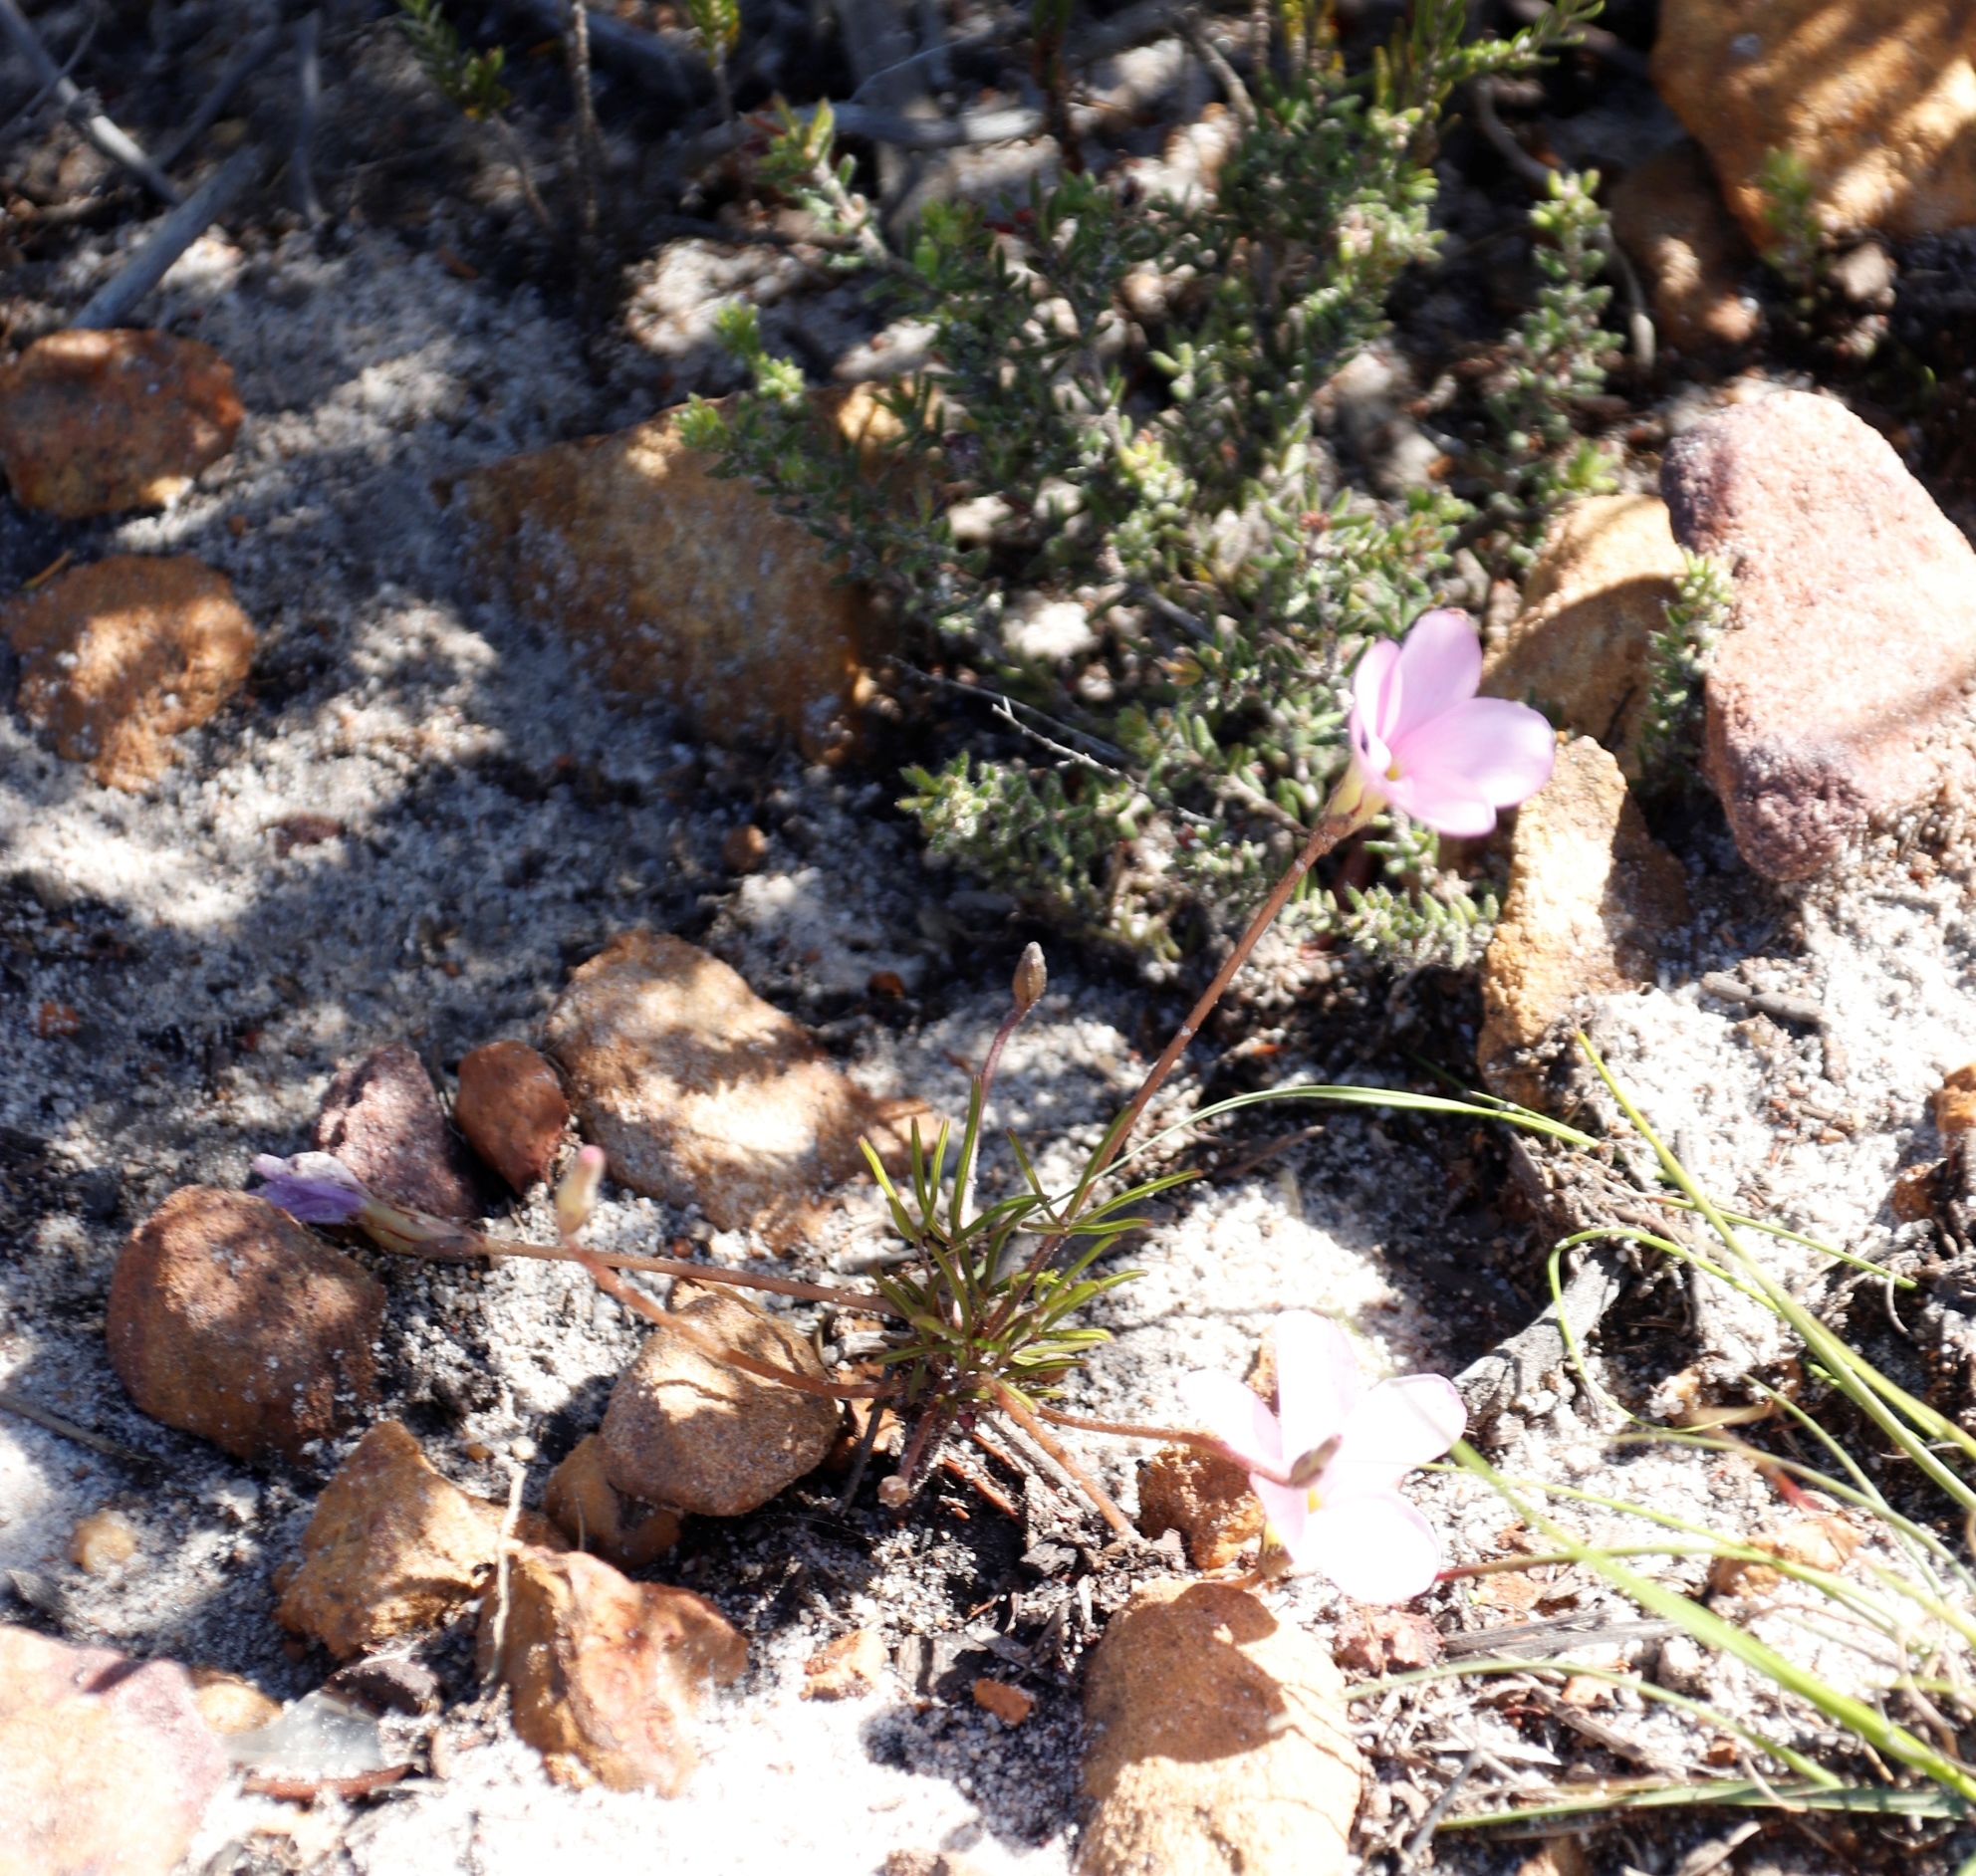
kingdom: Plantae
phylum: Tracheophyta
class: Magnoliopsida
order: Oxalidales
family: Oxalidaceae
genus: Oxalis
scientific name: Oxalis polyphylla
